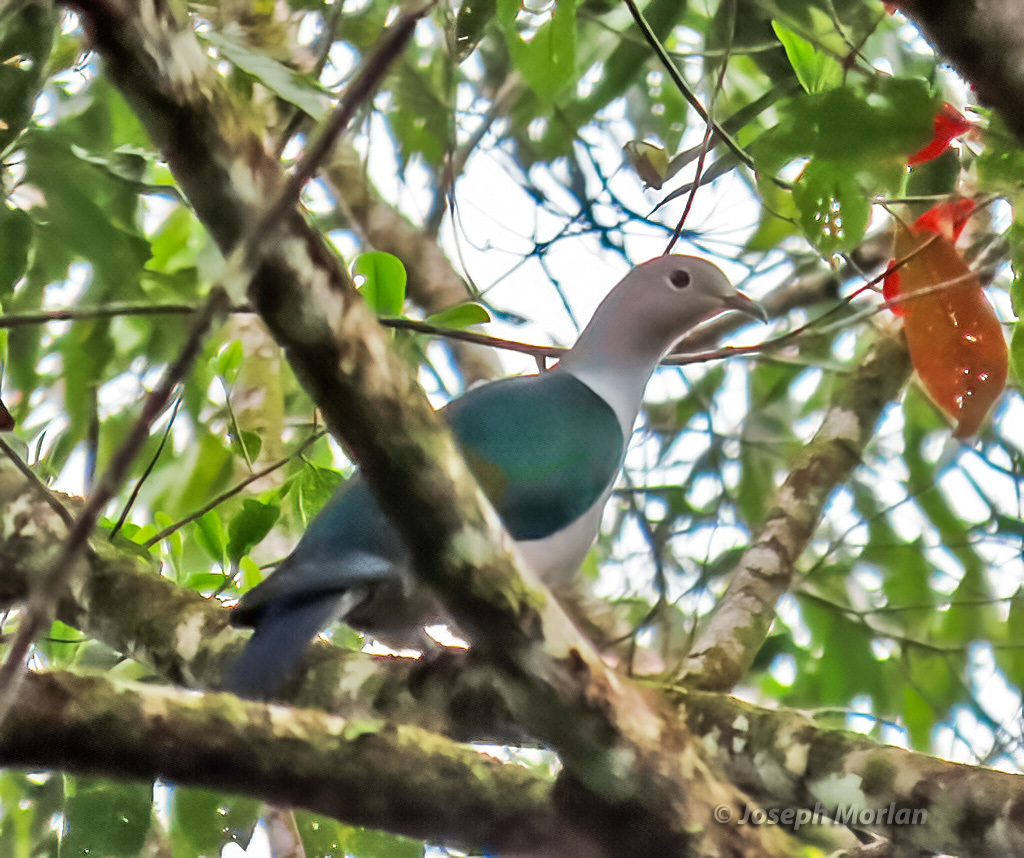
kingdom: Animalia
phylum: Chordata
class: Aves
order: Columbiformes
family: Columbidae
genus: Ducula
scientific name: Ducula neglecta
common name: Seram imperial pigeon
